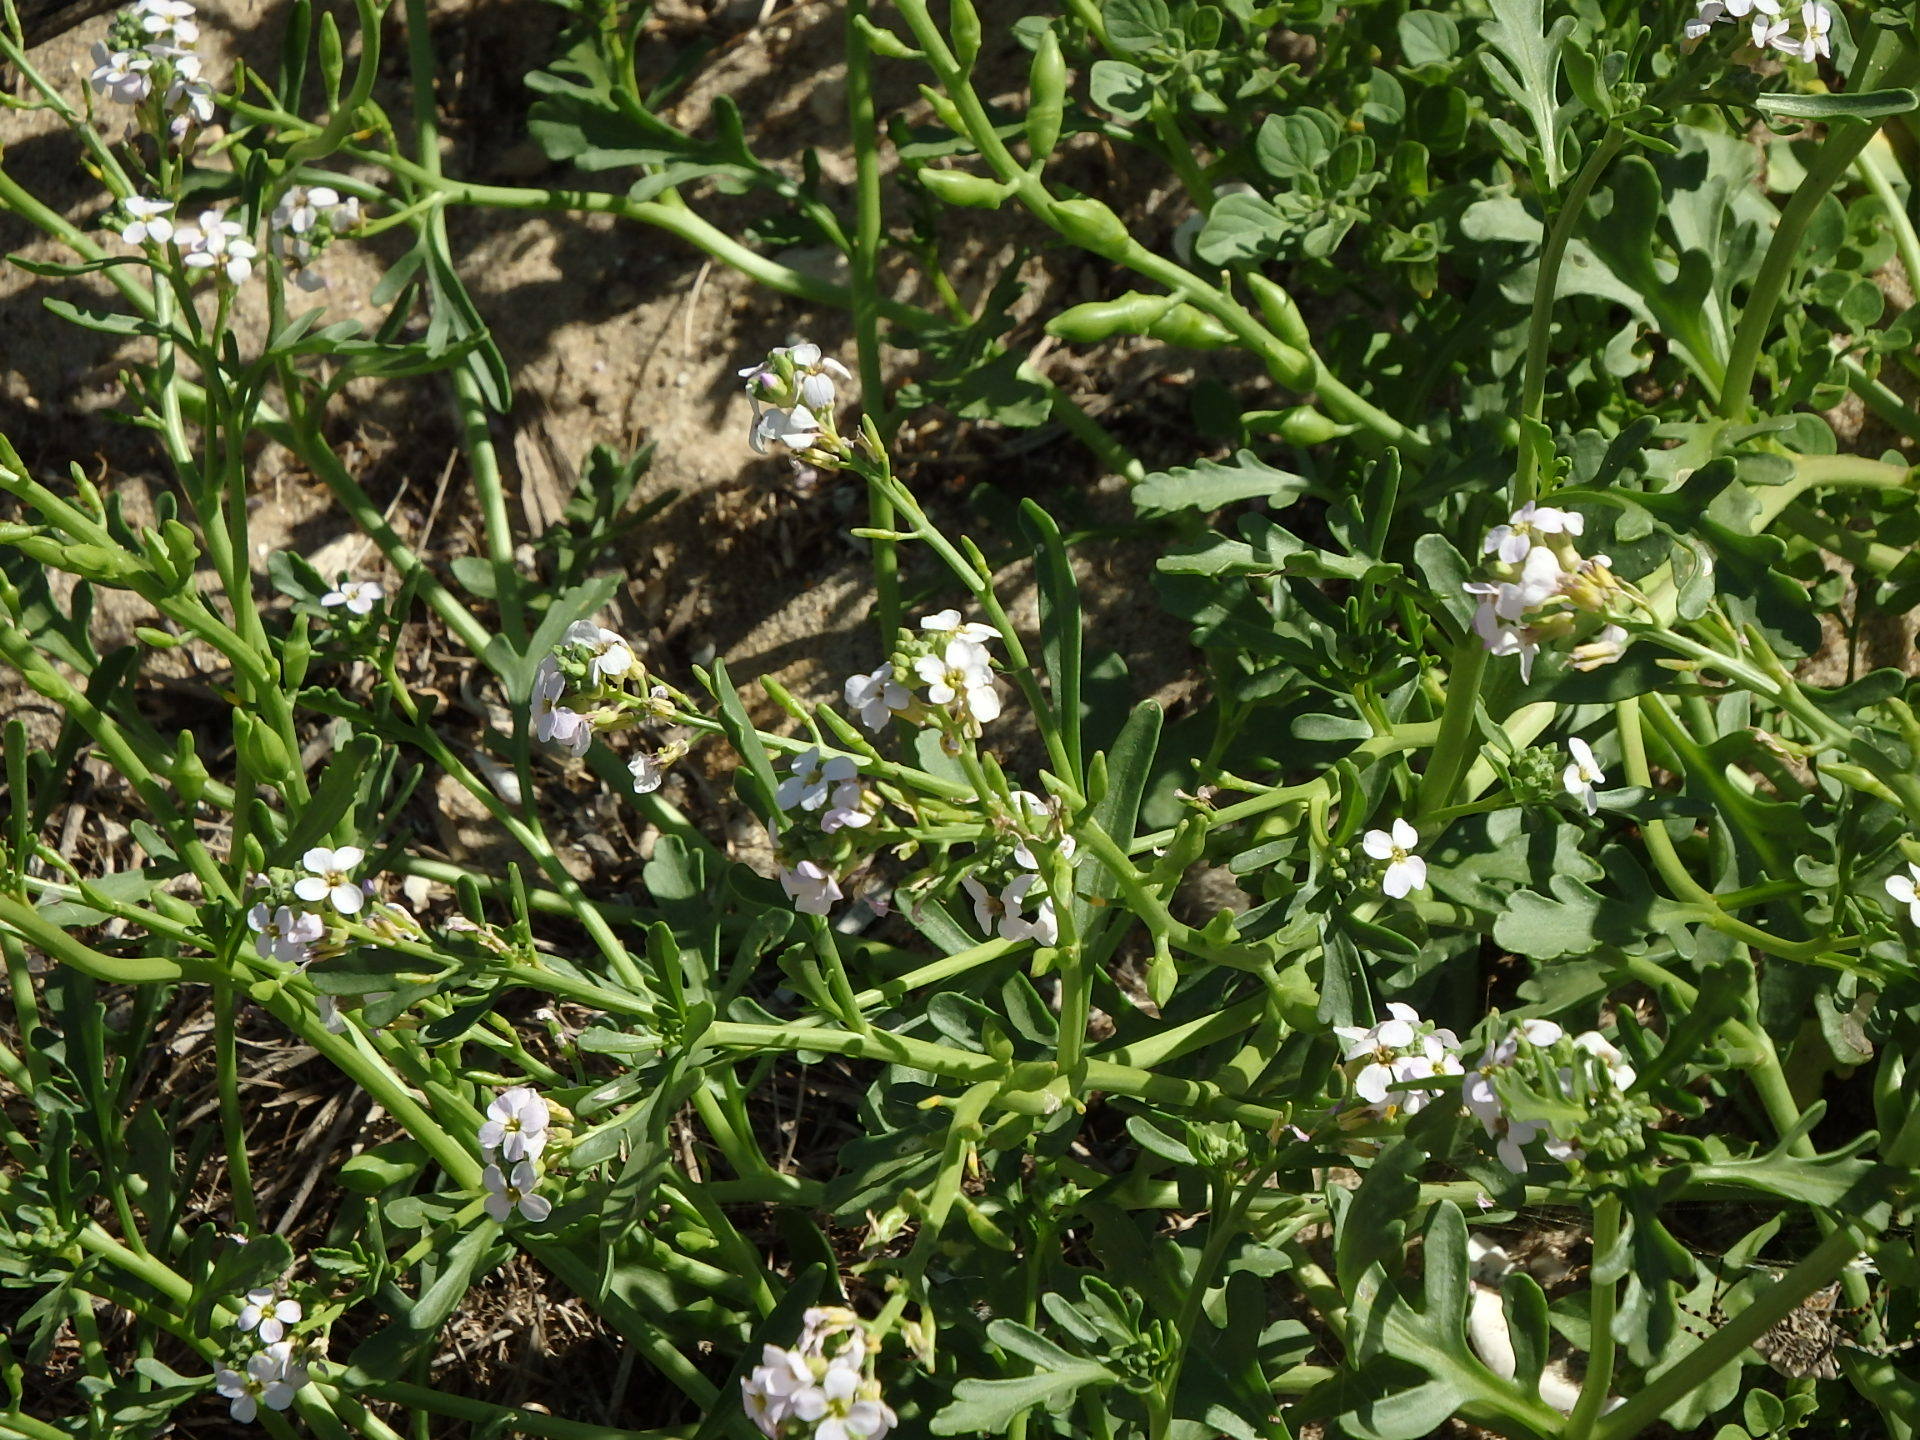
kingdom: Plantae
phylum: Tracheophyta
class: Magnoliopsida
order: Brassicales
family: Brassicaceae
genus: Cakile
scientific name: Cakile maritima
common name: Sea rocket
